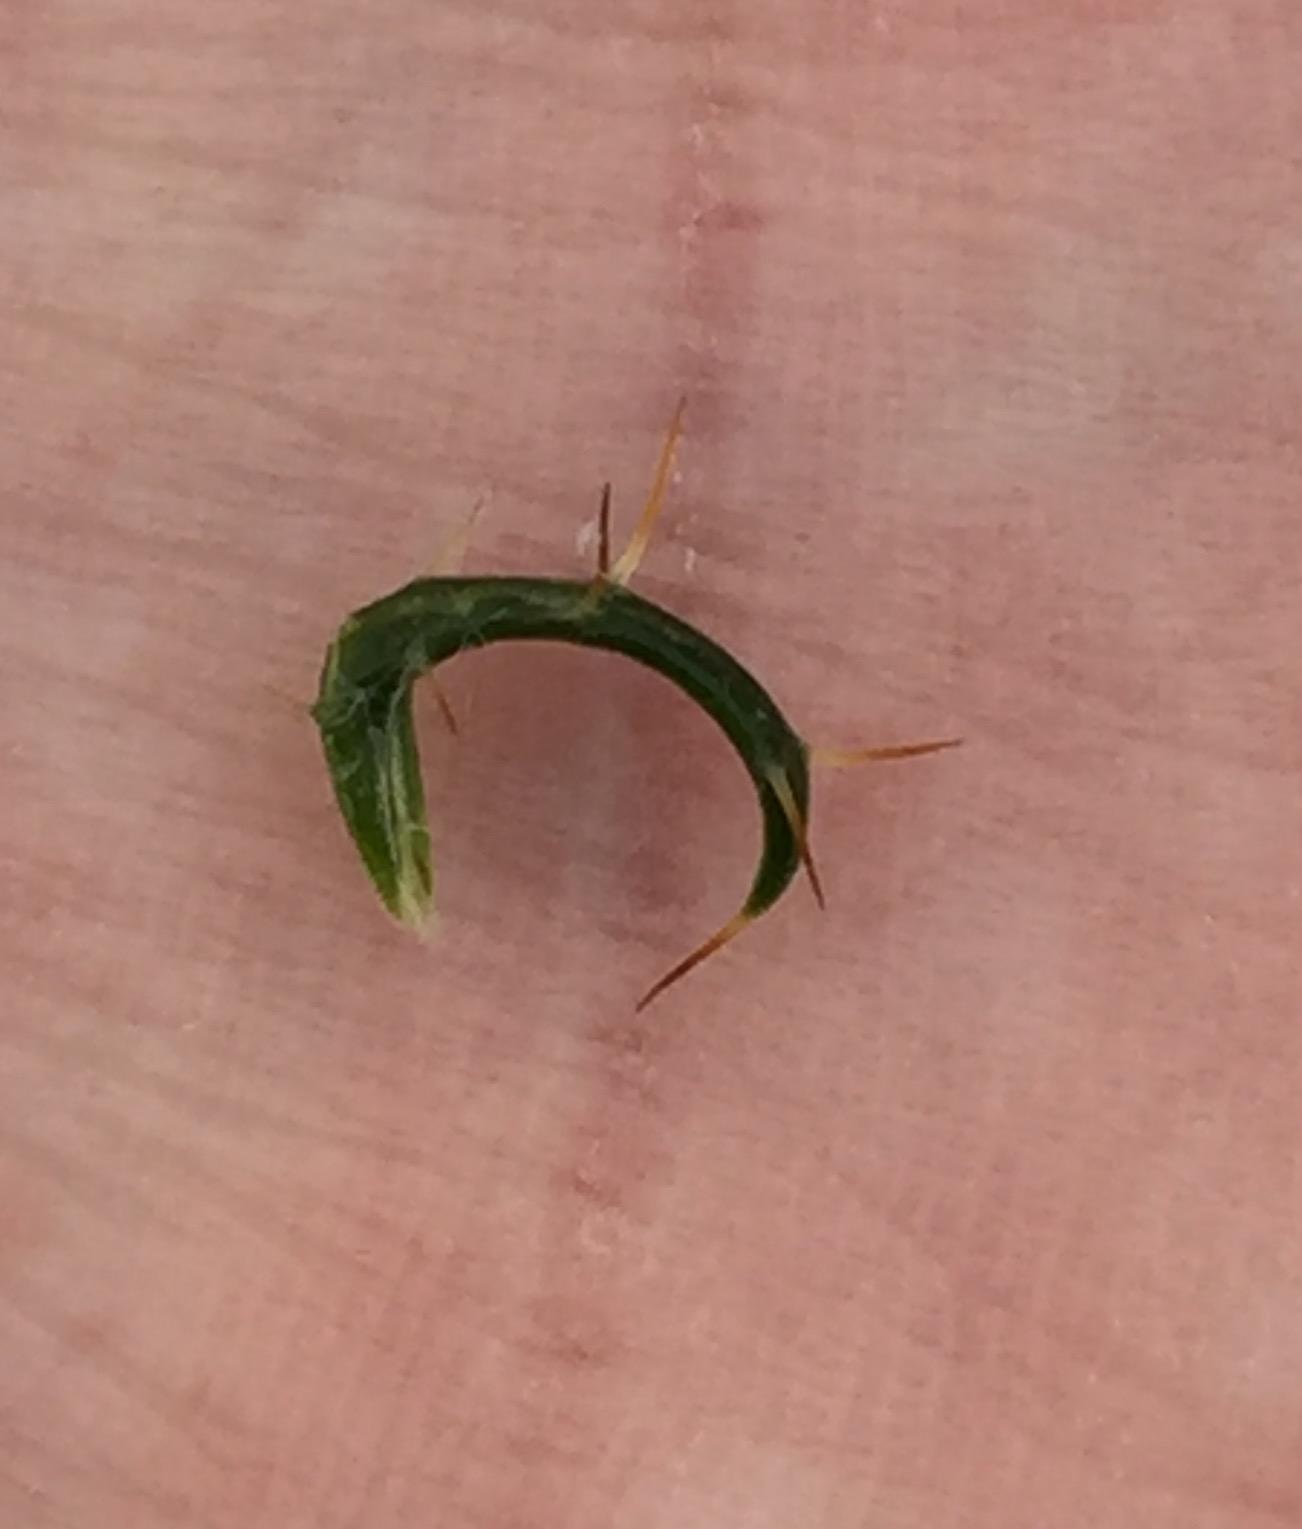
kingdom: Plantae
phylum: Tracheophyta
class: Magnoliopsida
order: Asterales
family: Asteraceae
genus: Cullumia
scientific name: Cullumia decurrens
